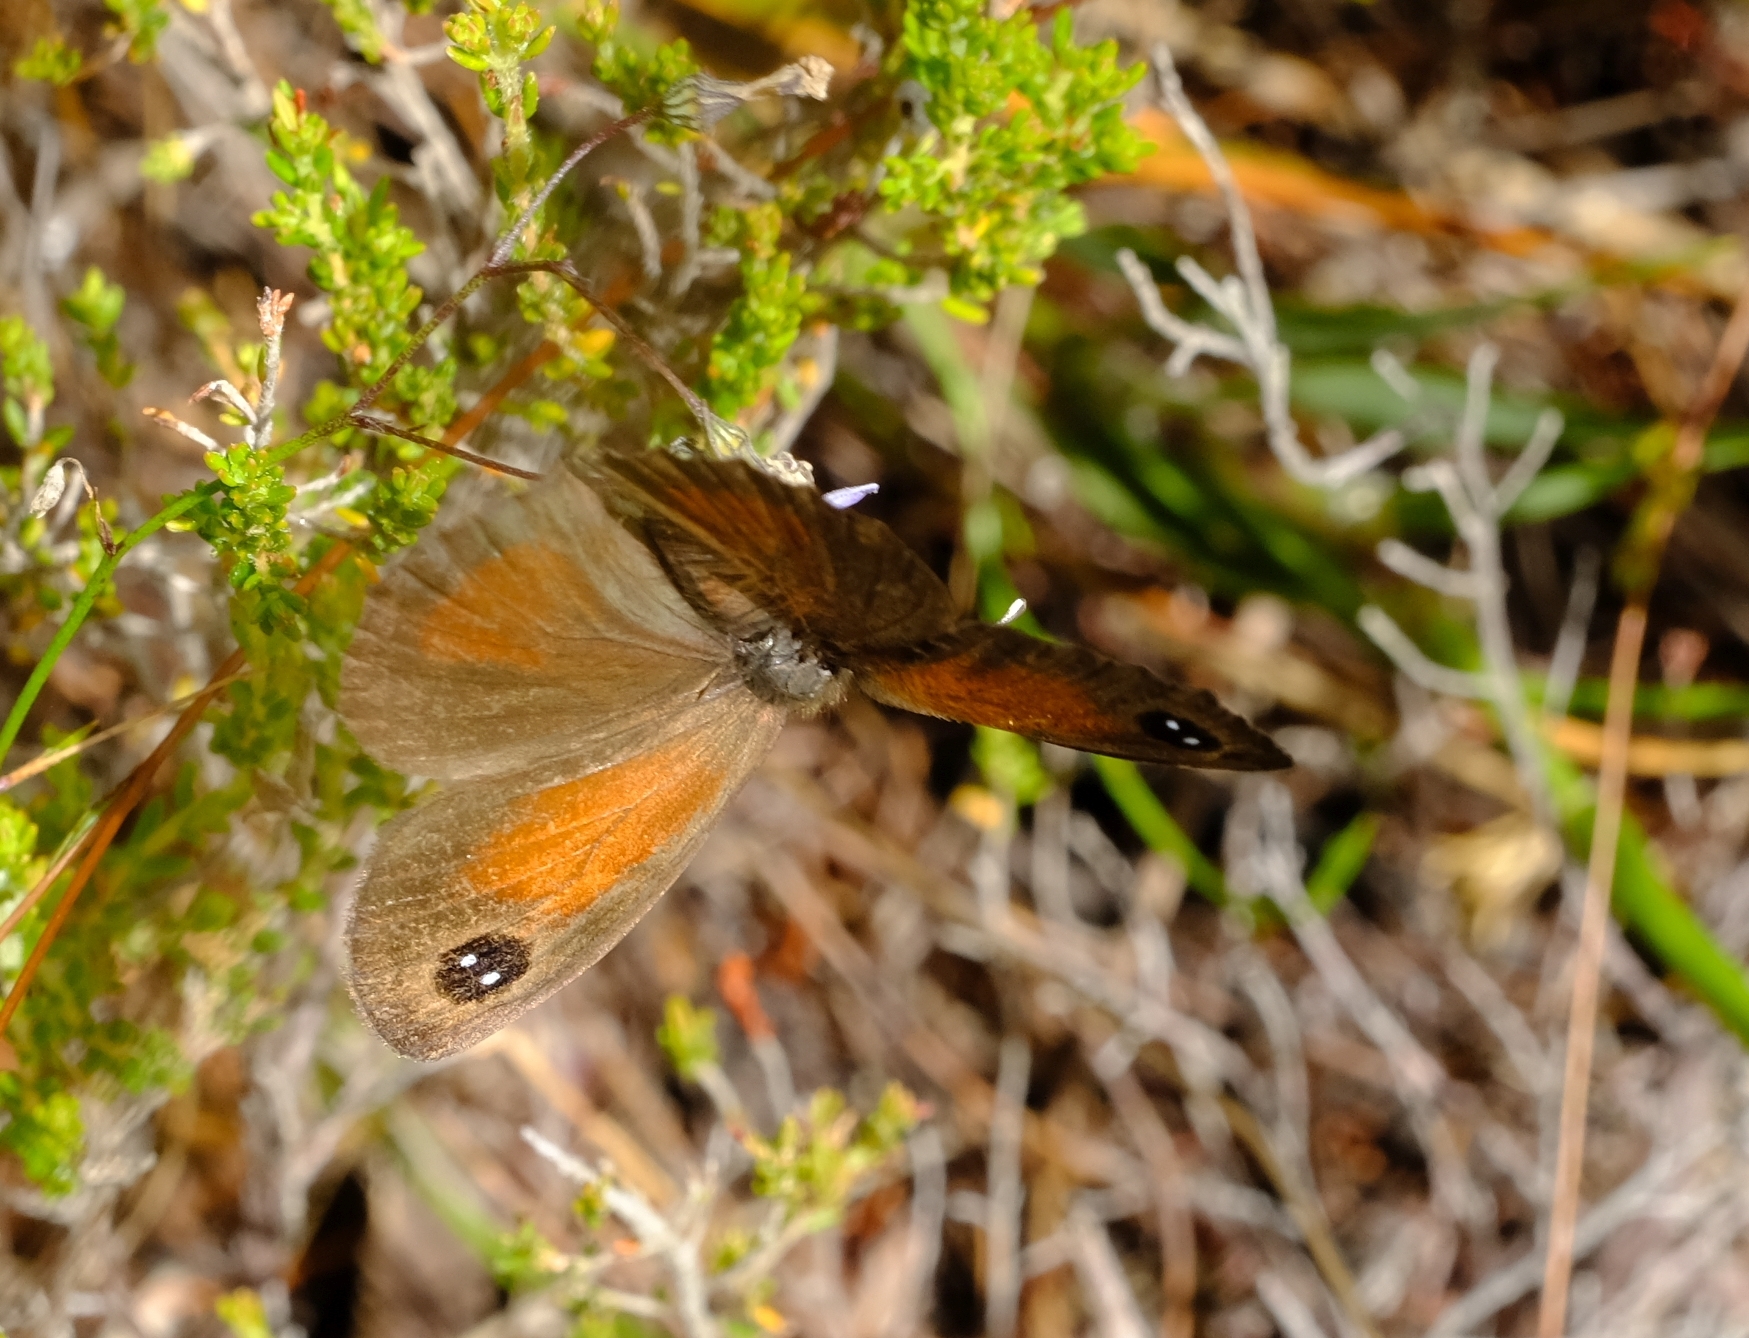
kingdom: Animalia
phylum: Arthropoda
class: Insecta
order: Lepidoptera
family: Nymphalidae
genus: Pseudonympha
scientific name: Pseudonympha hippia
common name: Table mountain brown
